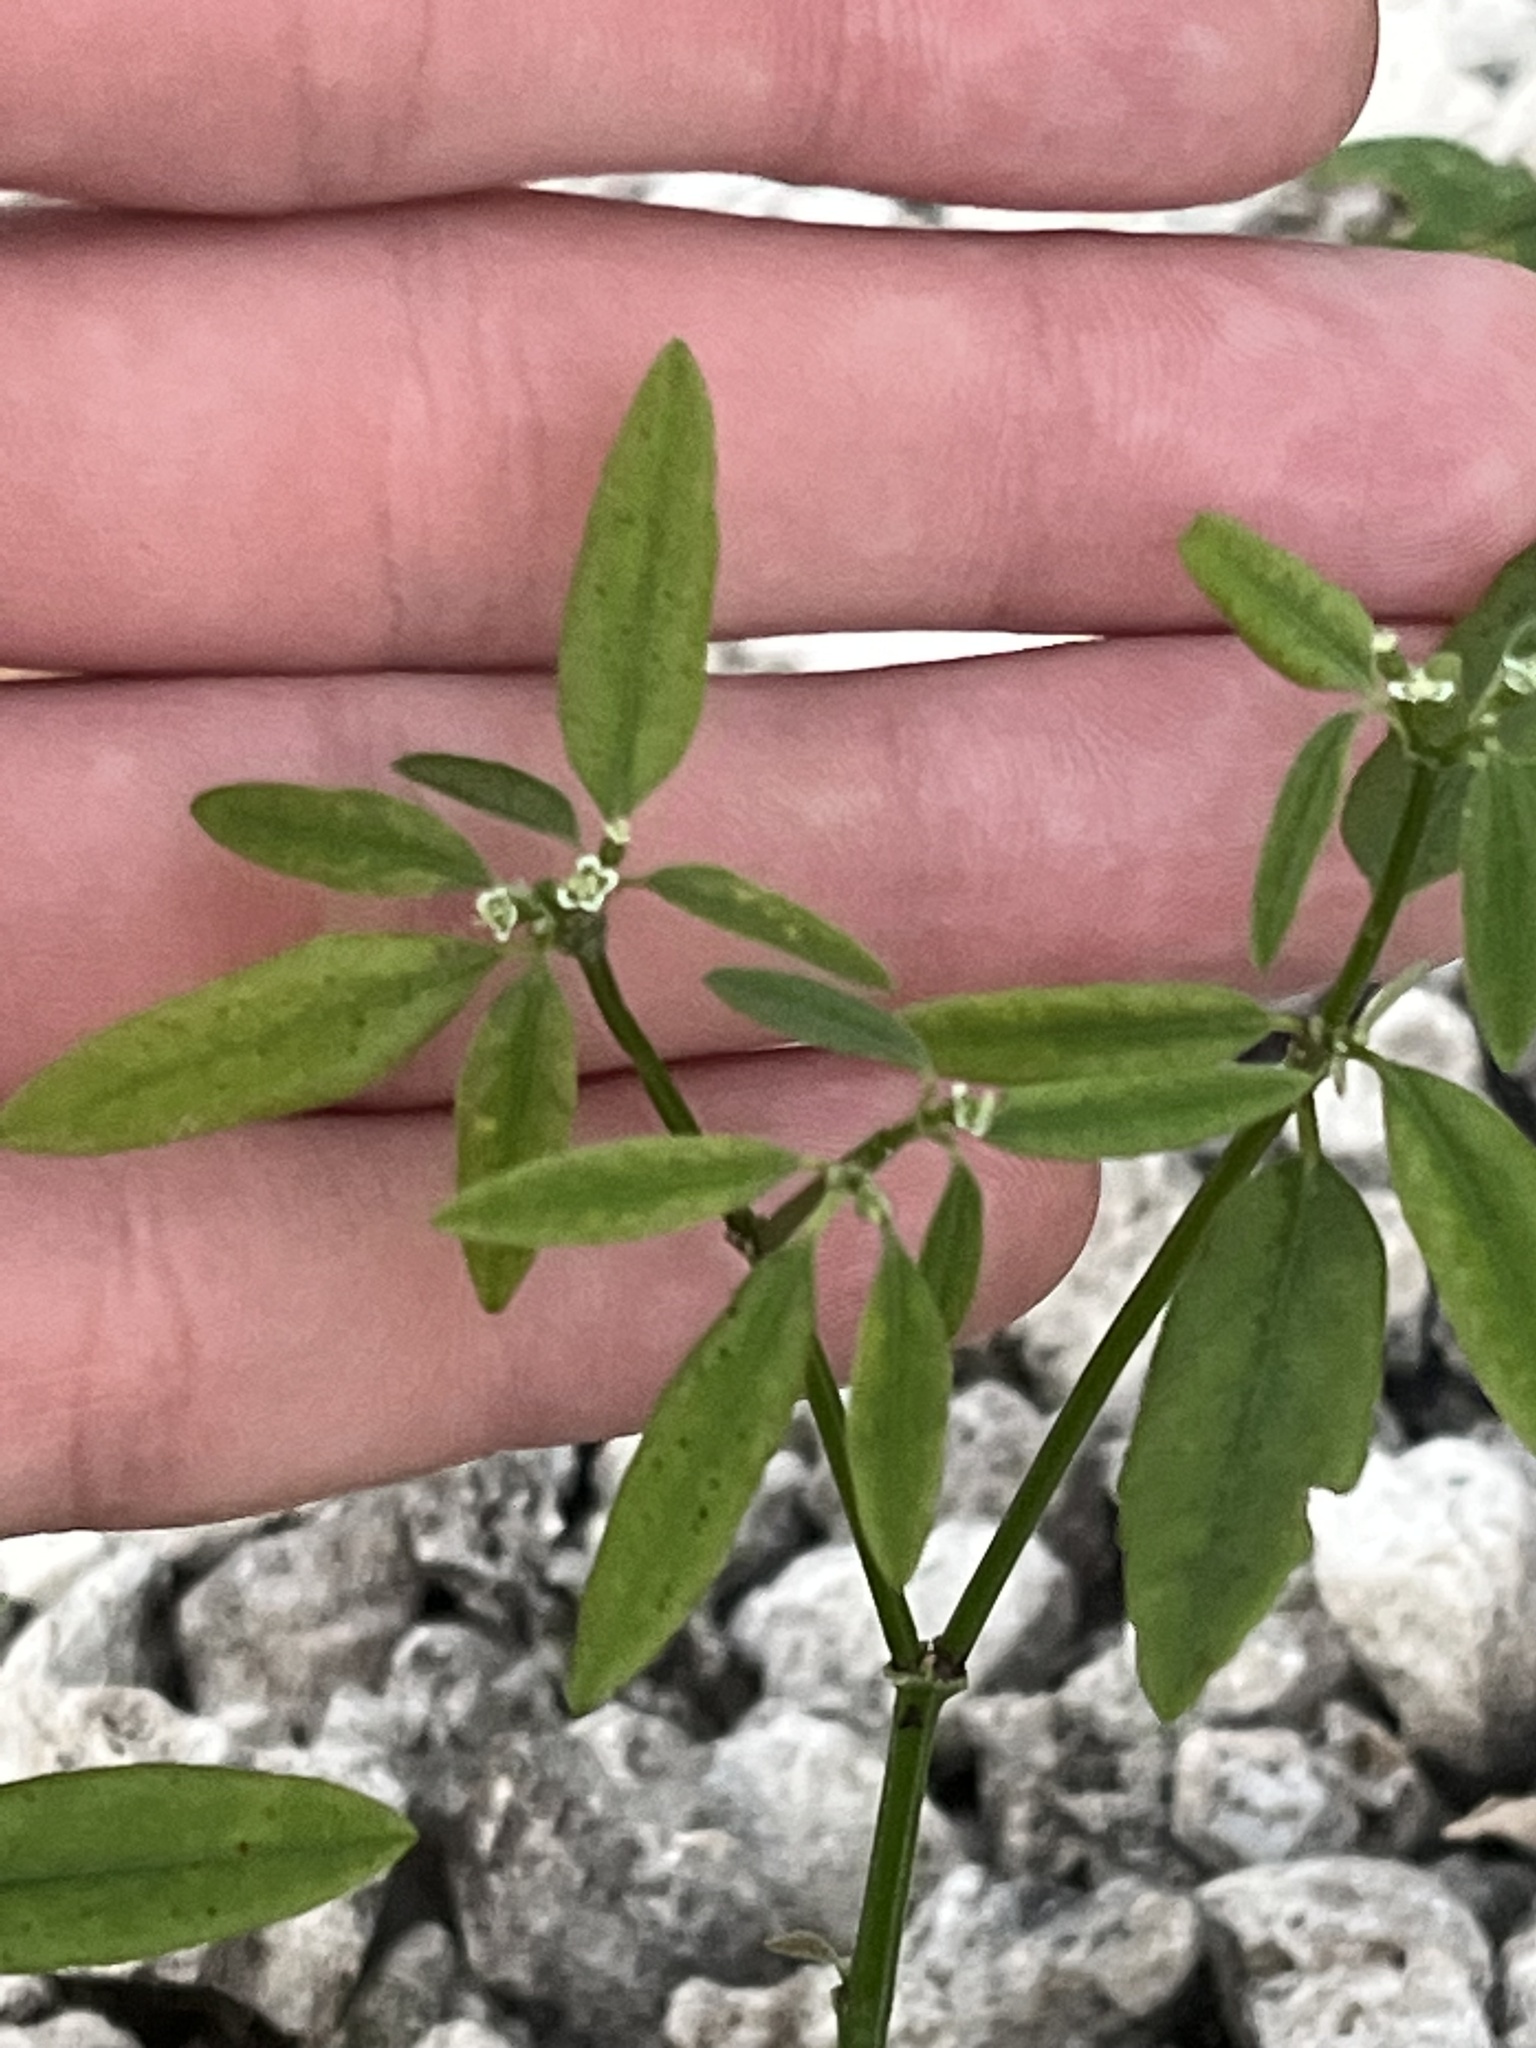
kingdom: Plantae
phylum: Tracheophyta
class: Magnoliopsida
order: Malpighiales
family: Euphorbiaceae
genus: Euphorbia
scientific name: Euphorbia graminea
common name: Grassleaf spurge
